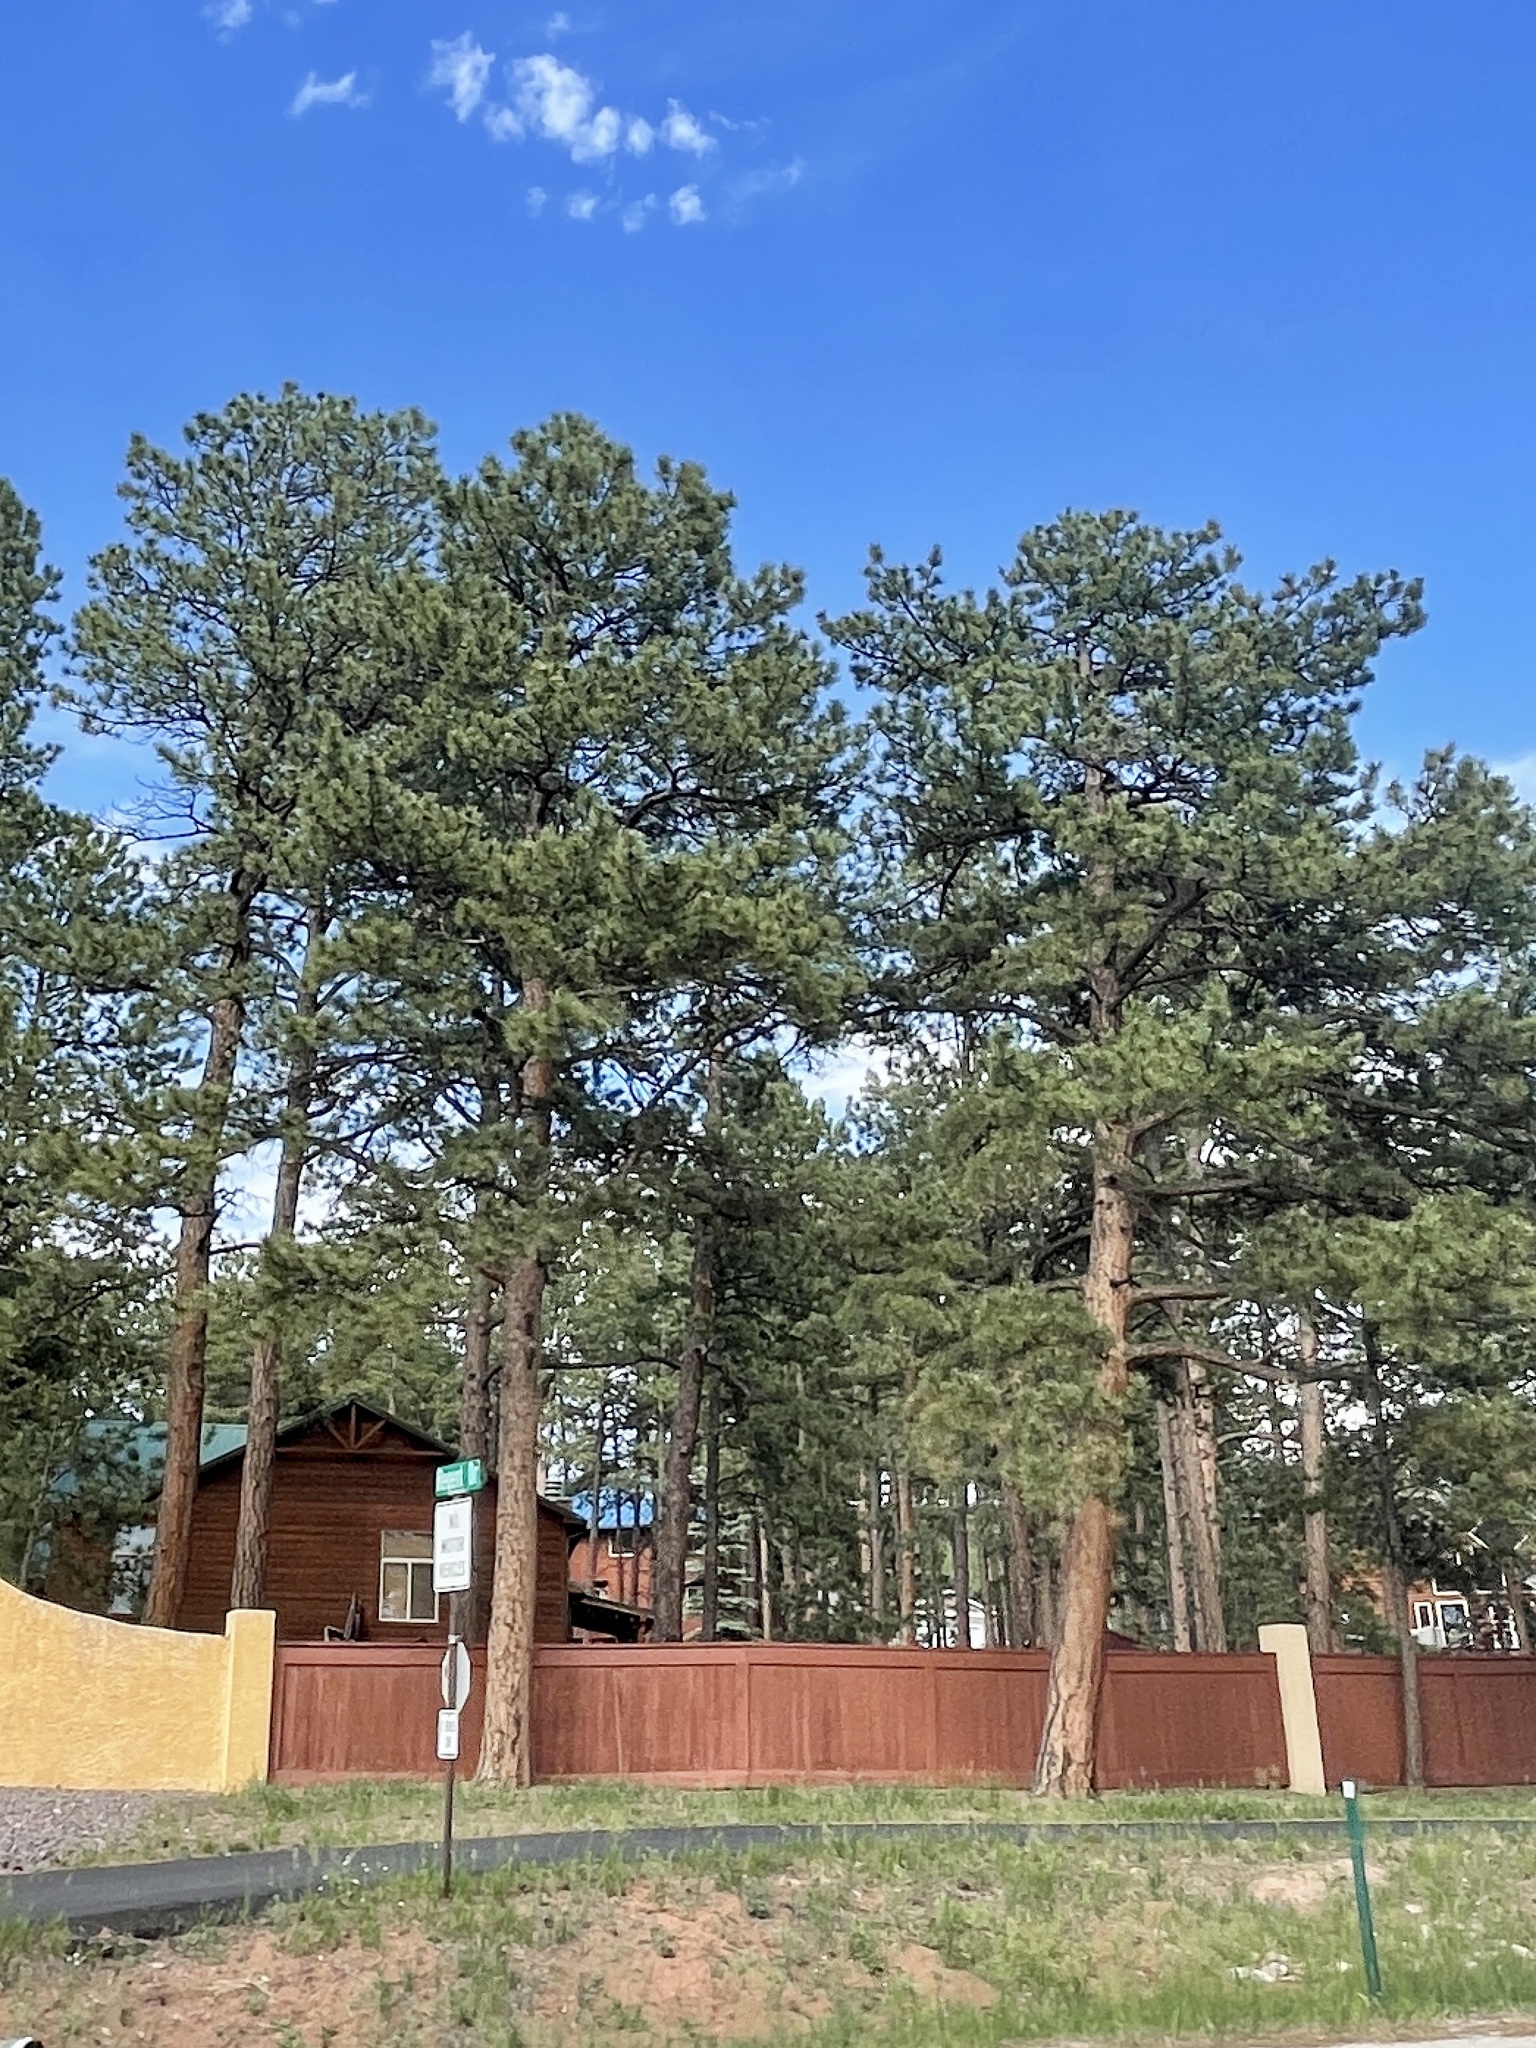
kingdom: Plantae
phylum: Tracheophyta
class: Pinopsida
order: Pinales
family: Pinaceae
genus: Pinus
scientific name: Pinus ponderosa
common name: Western yellow-pine
